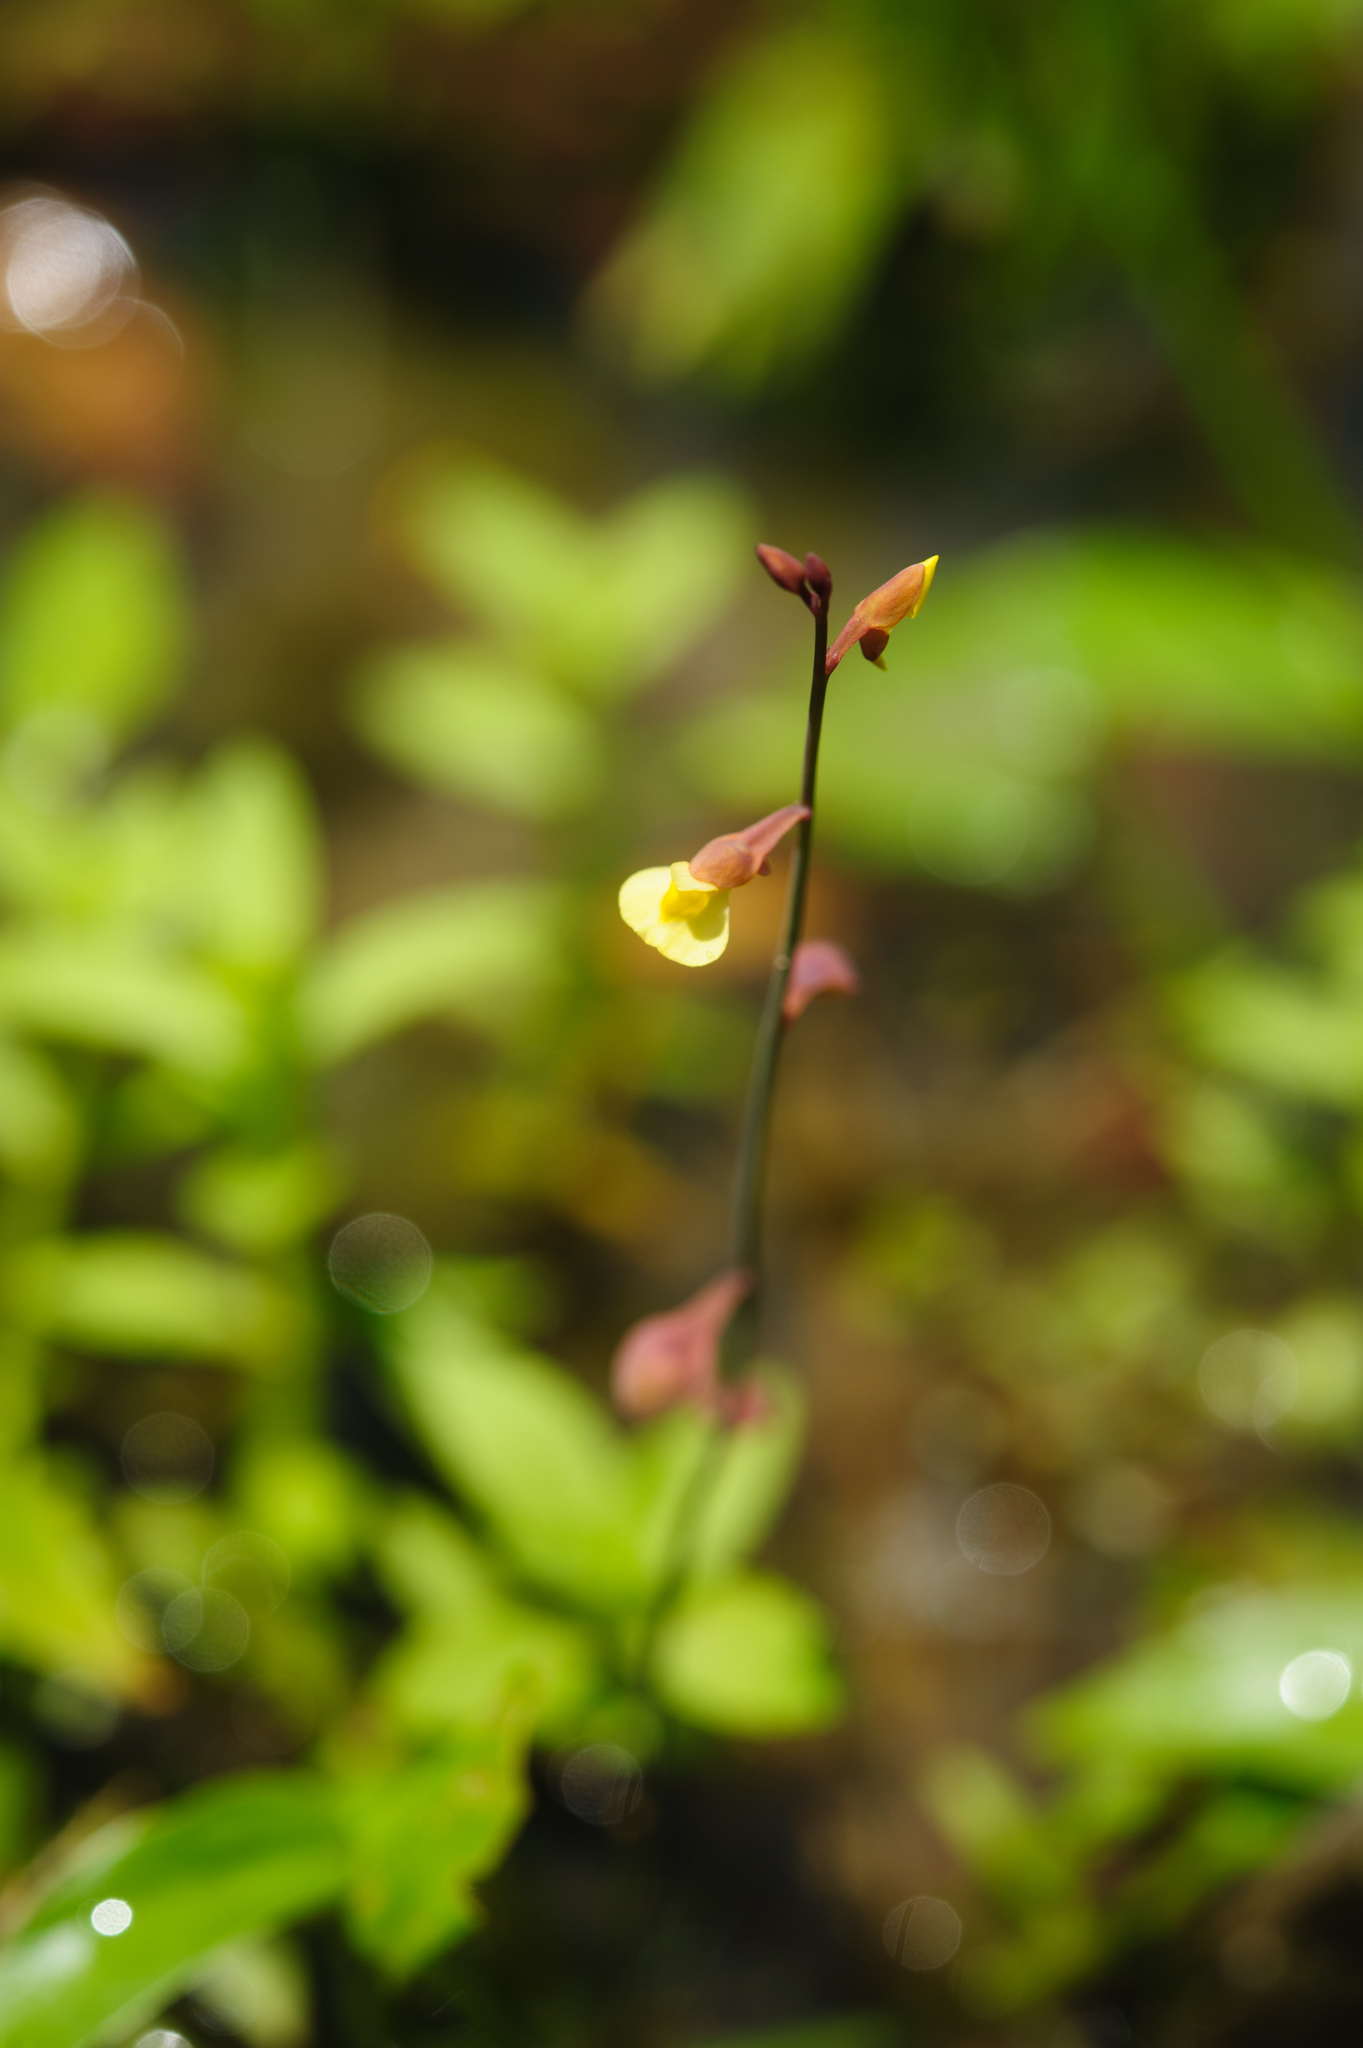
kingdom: Plantae
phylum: Tracheophyta
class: Magnoliopsida
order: Lamiales
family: Lentibulariaceae
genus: Utricularia
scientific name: Utricularia bifida
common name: Bifid bladderwort
